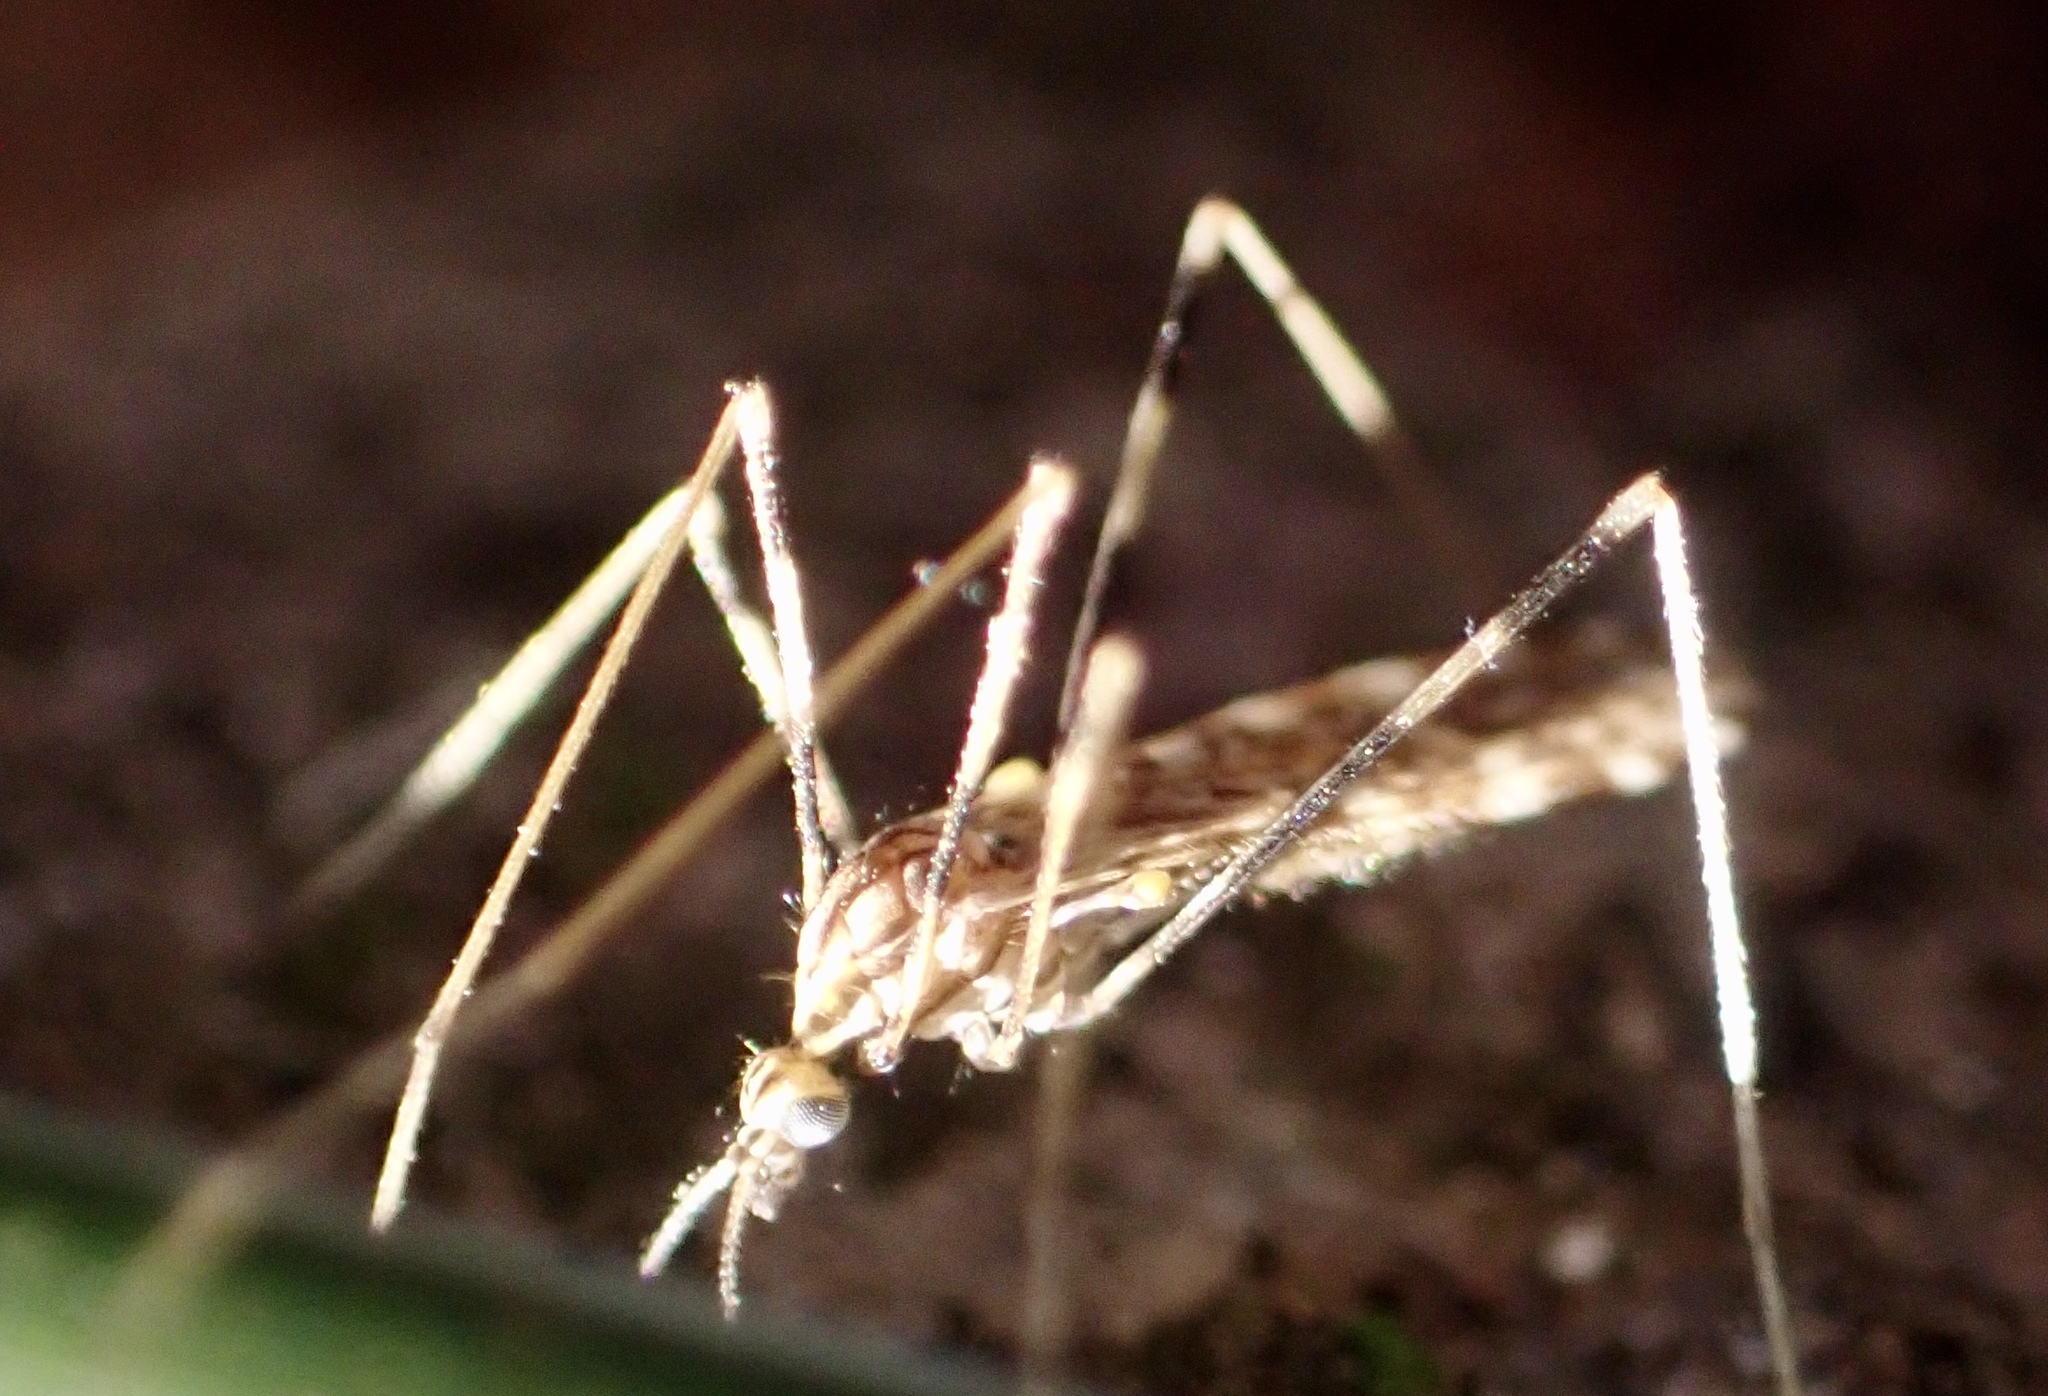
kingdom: Animalia
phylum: Arthropoda
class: Insecta
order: Diptera
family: Limoniidae
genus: Erioptera
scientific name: Erioptera caliptera
